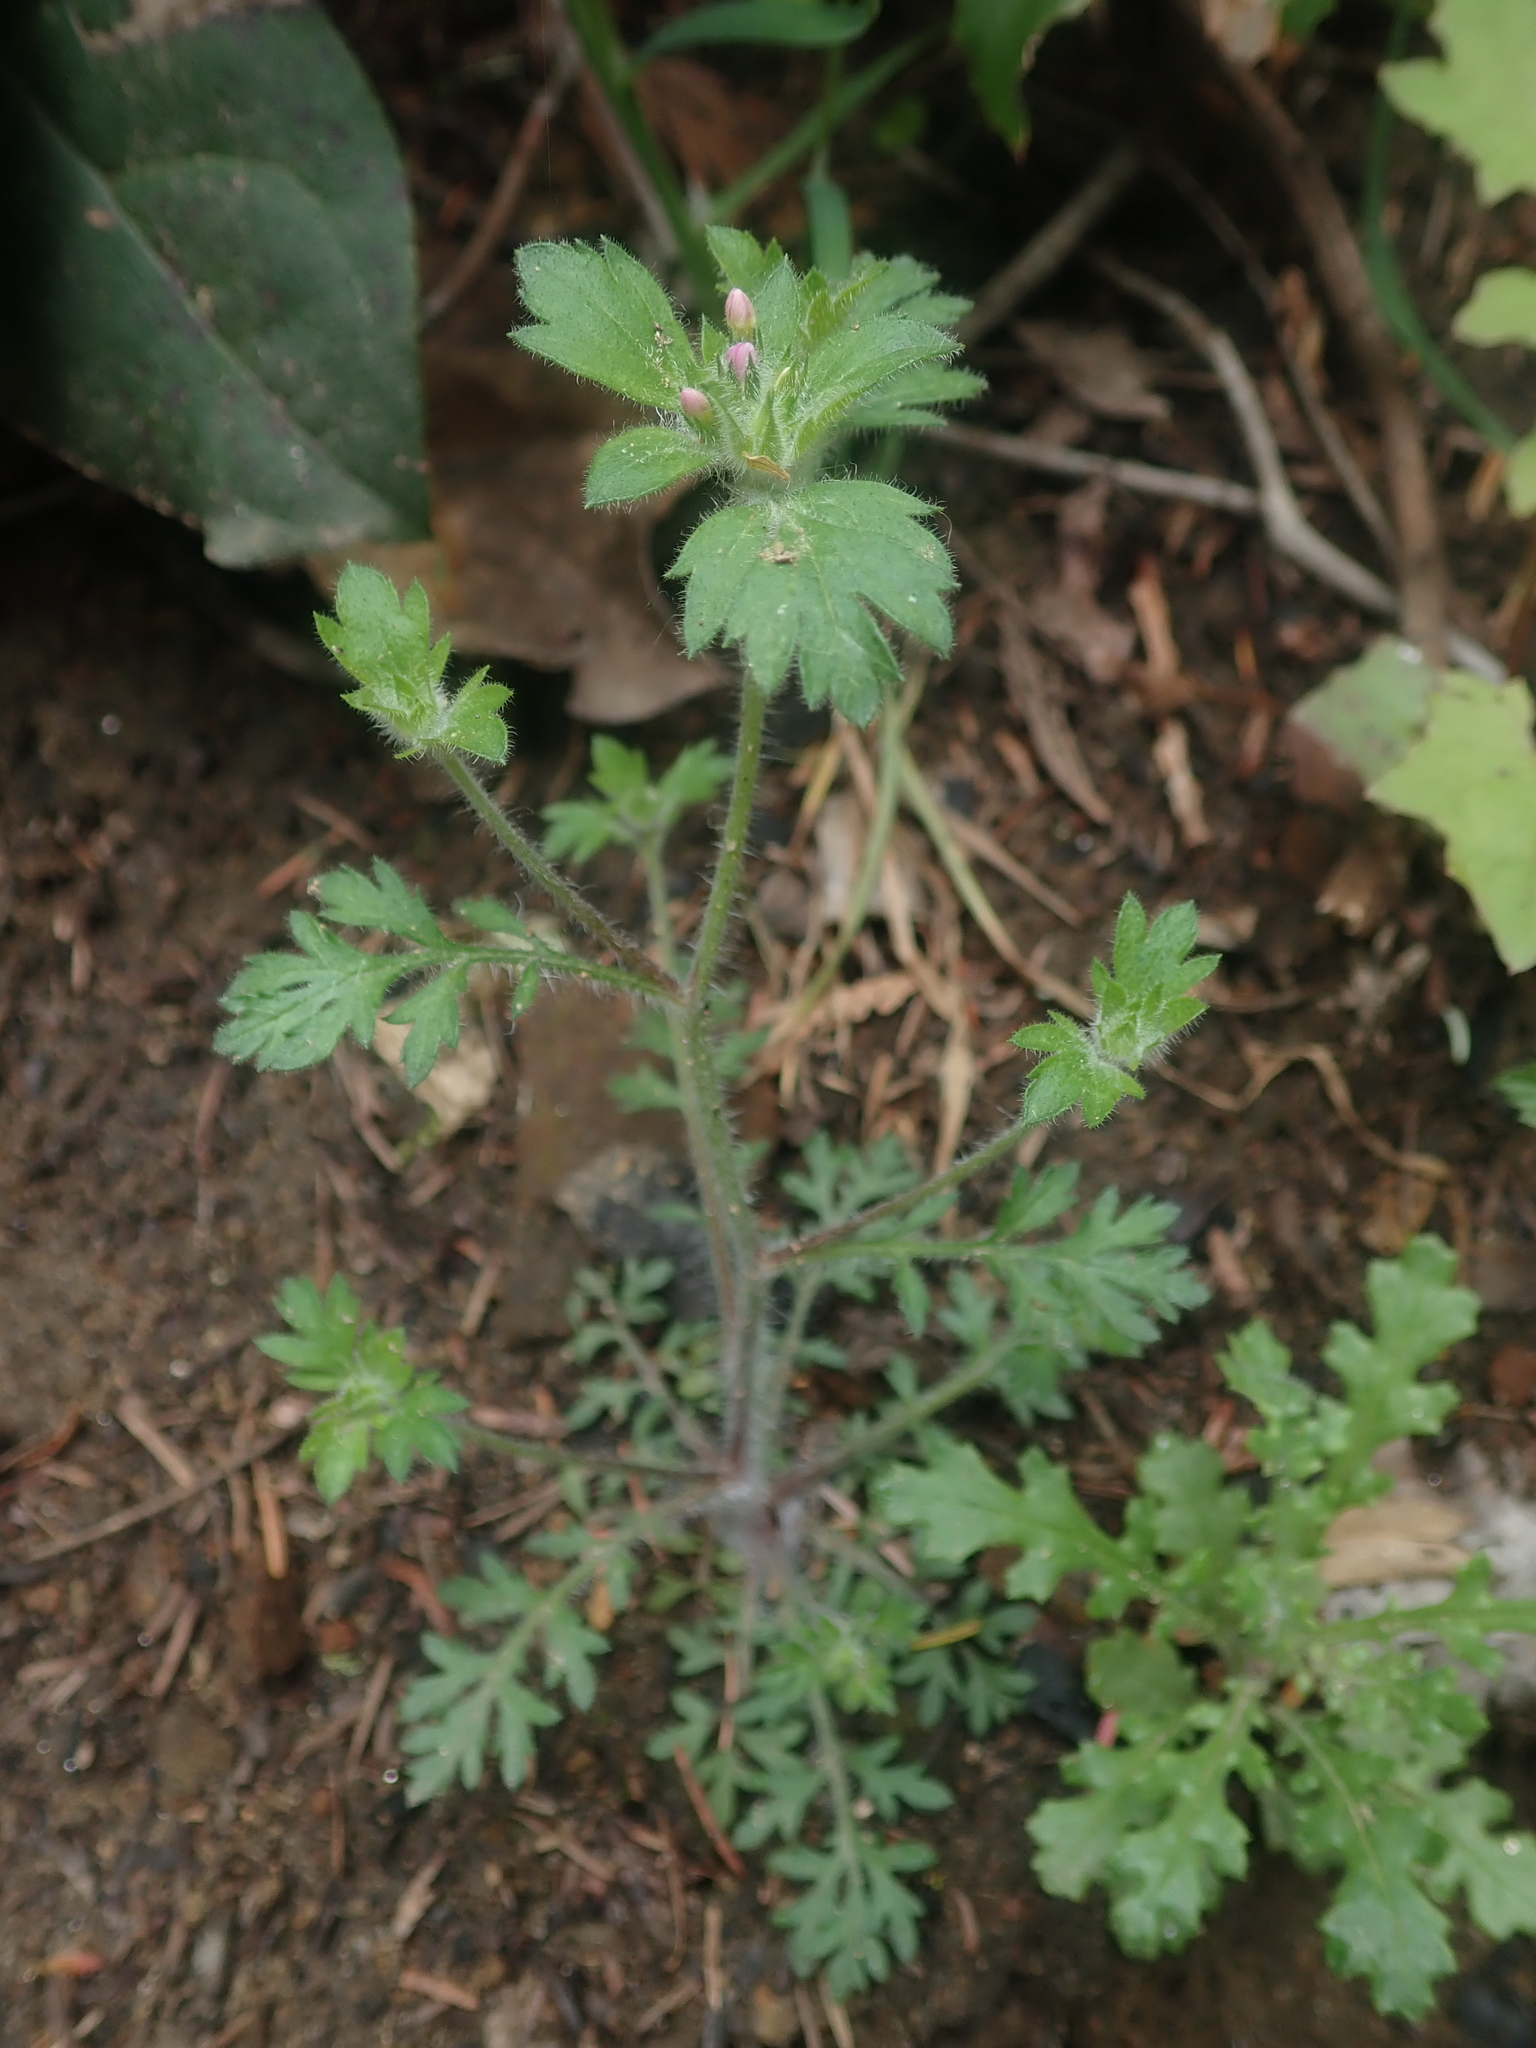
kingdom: Plantae
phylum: Tracheophyta
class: Magnoliopsida
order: Ericales
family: Polemoniaceae
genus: Collomia
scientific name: Collomia heterophylla
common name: Variable-leaved collomia
